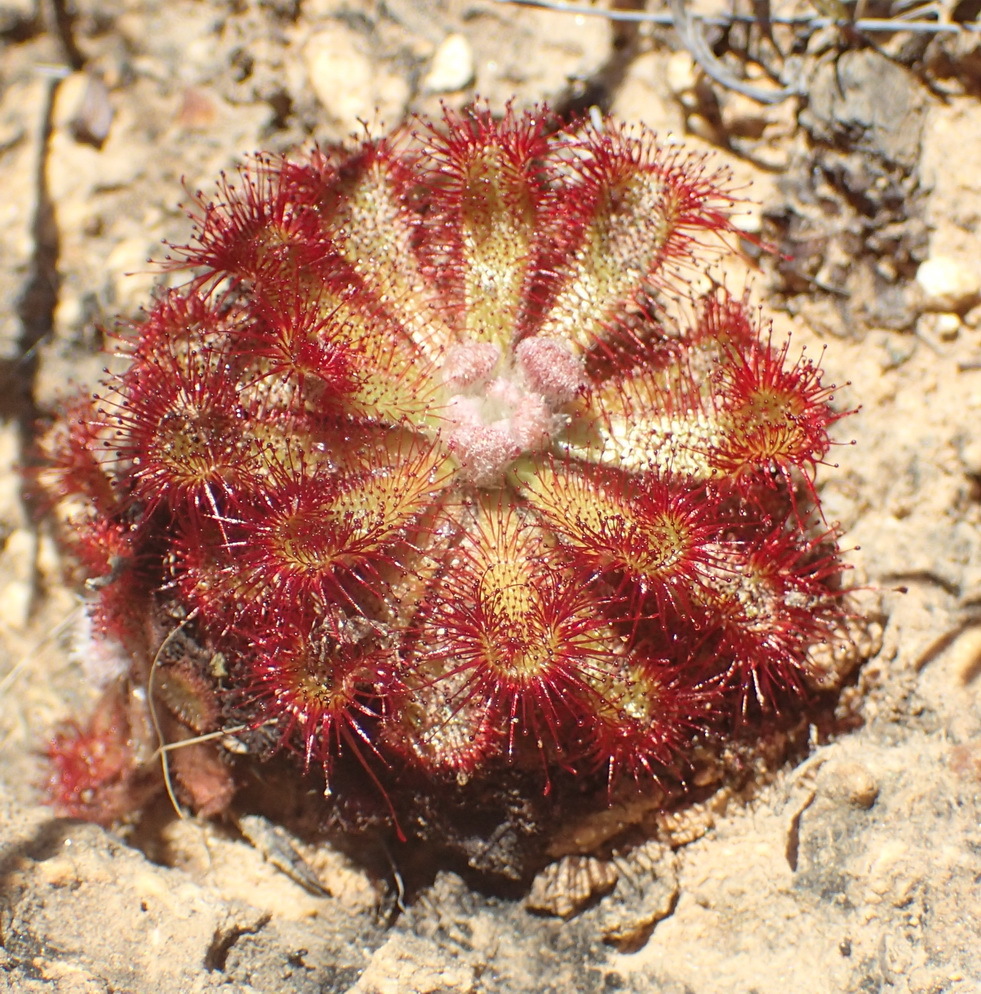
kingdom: Plantae
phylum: Tracheophyta
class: Magnoliopsida
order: Caryophyllales
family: Droseraceae
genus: Drosera
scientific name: Drosera aliciae
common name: Alice sundew
